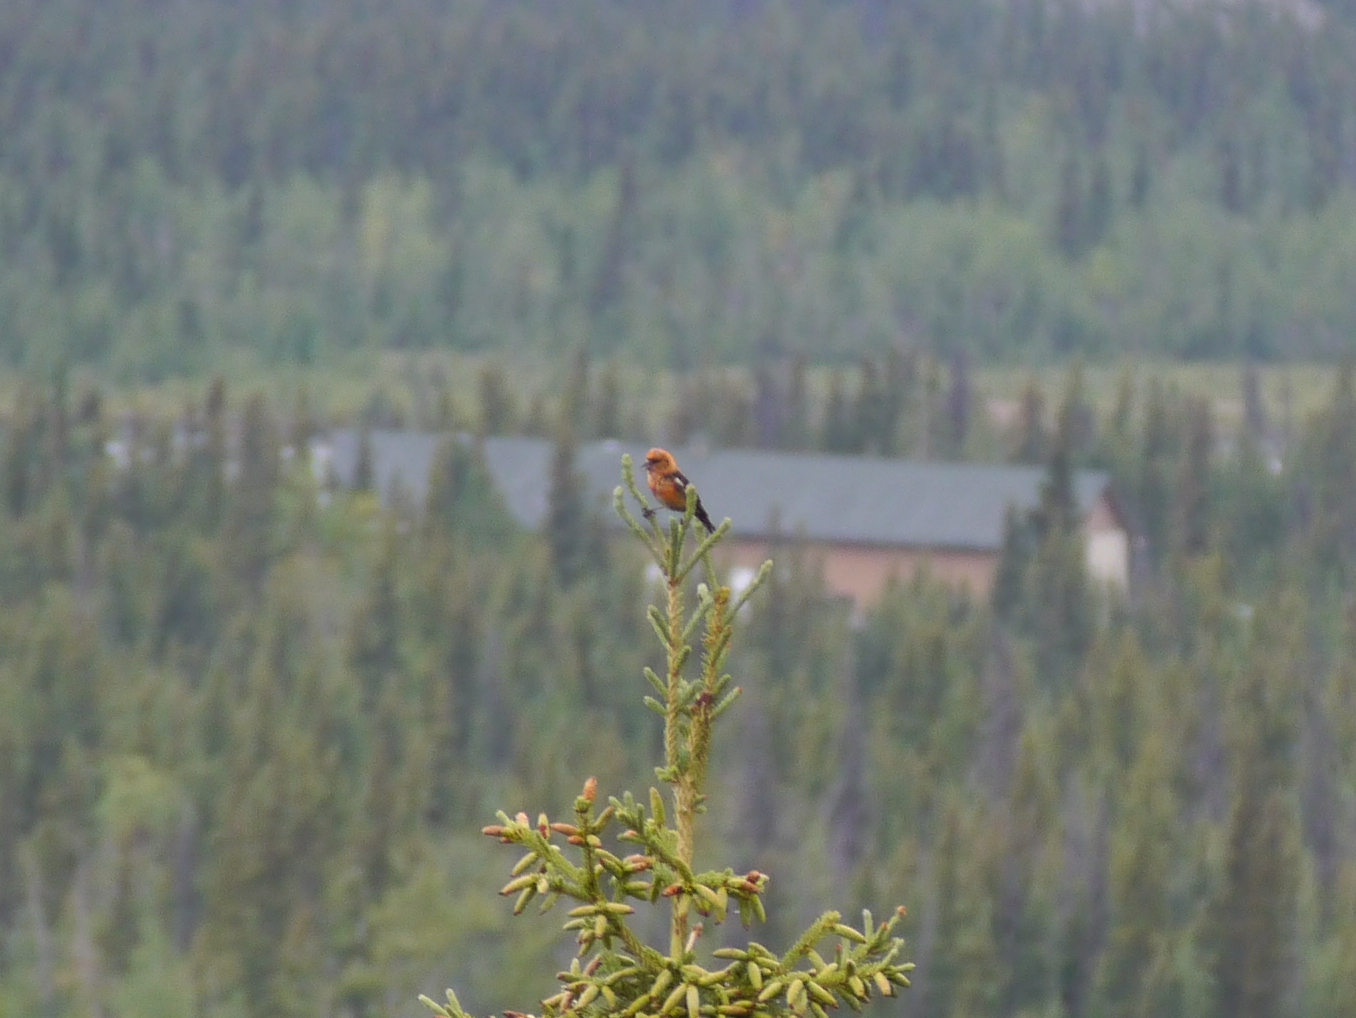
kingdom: Animalia
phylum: Chordata
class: Aves
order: Passeriformes
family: Fringillidae
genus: Loxia
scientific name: Loxia leucoptera
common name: Two-barred crossbill
